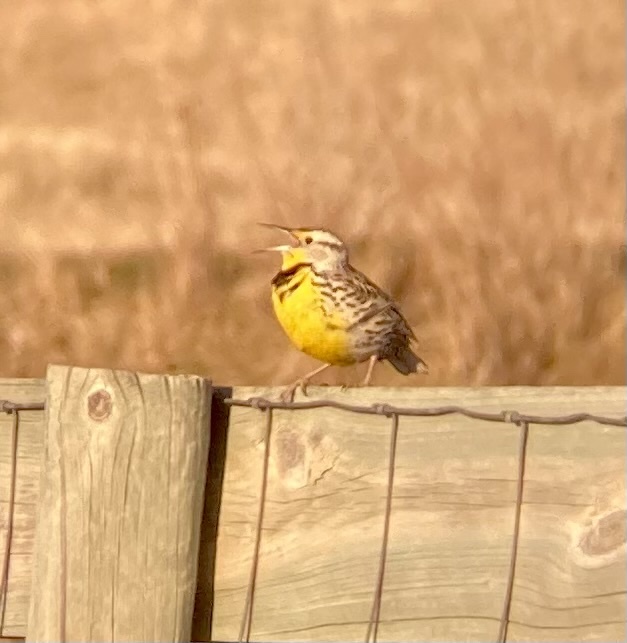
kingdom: Animalia
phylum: Chordata
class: Aves
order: Passeriformes
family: Icteridae
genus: Sturnella
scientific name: Sturnella neglecta
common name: Western meadowlark
